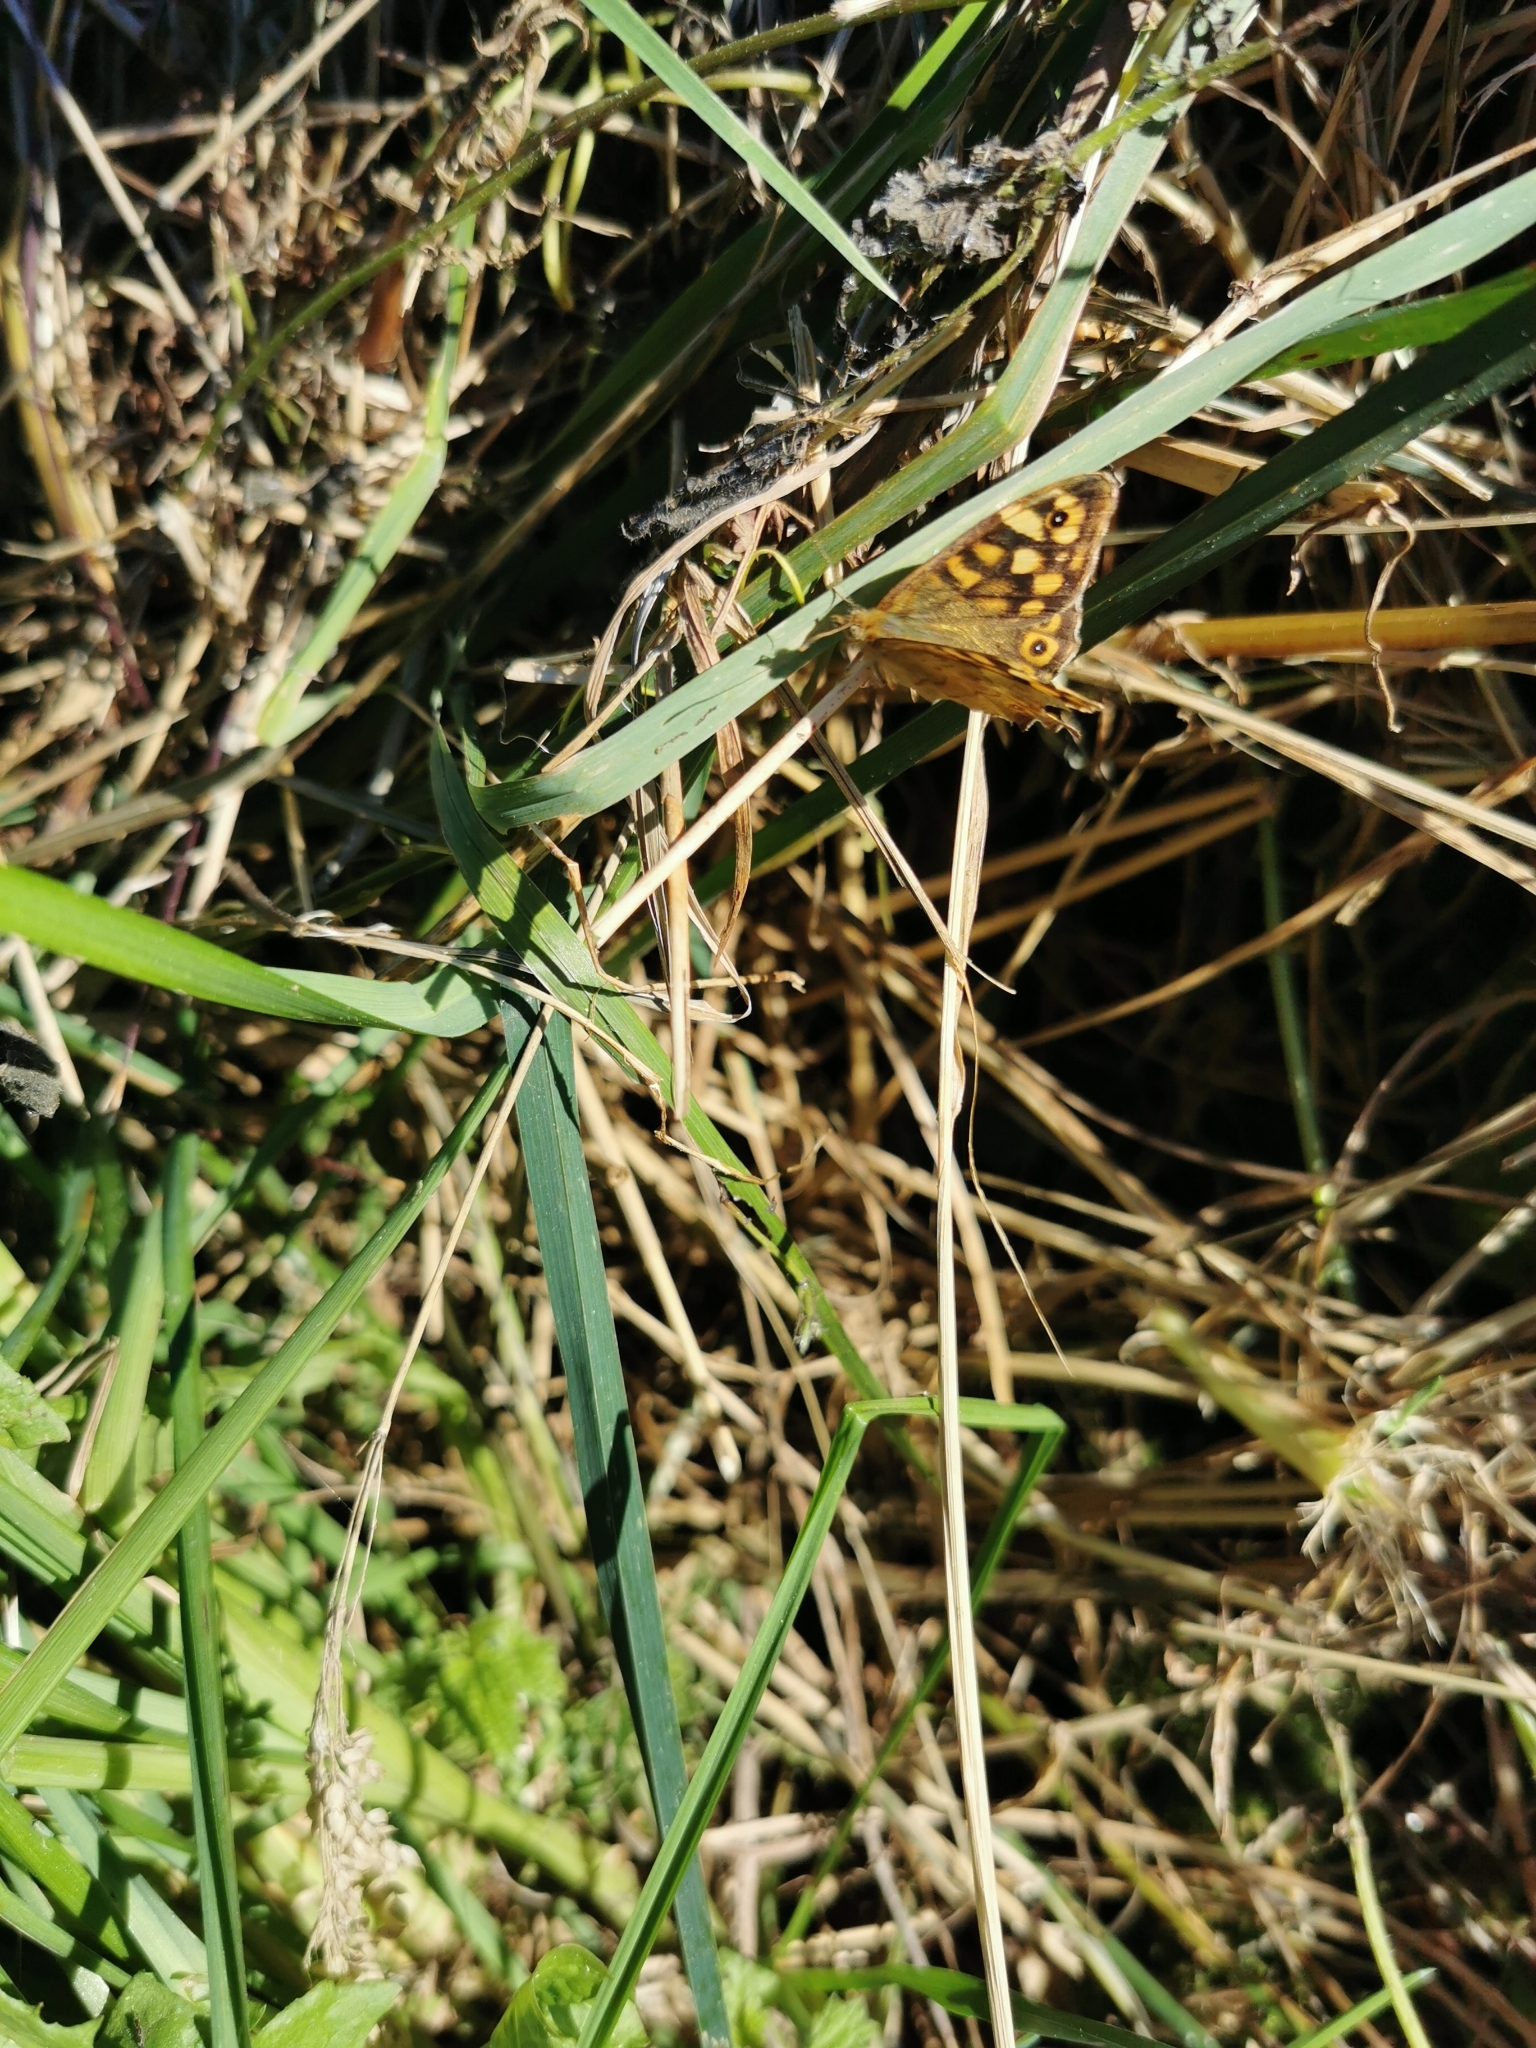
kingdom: Animalia
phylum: Arthropoda
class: Insecta
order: Lepidoptera
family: Nymphalidae
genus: Pararge
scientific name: Pararge aegeria
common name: Speckled wood
